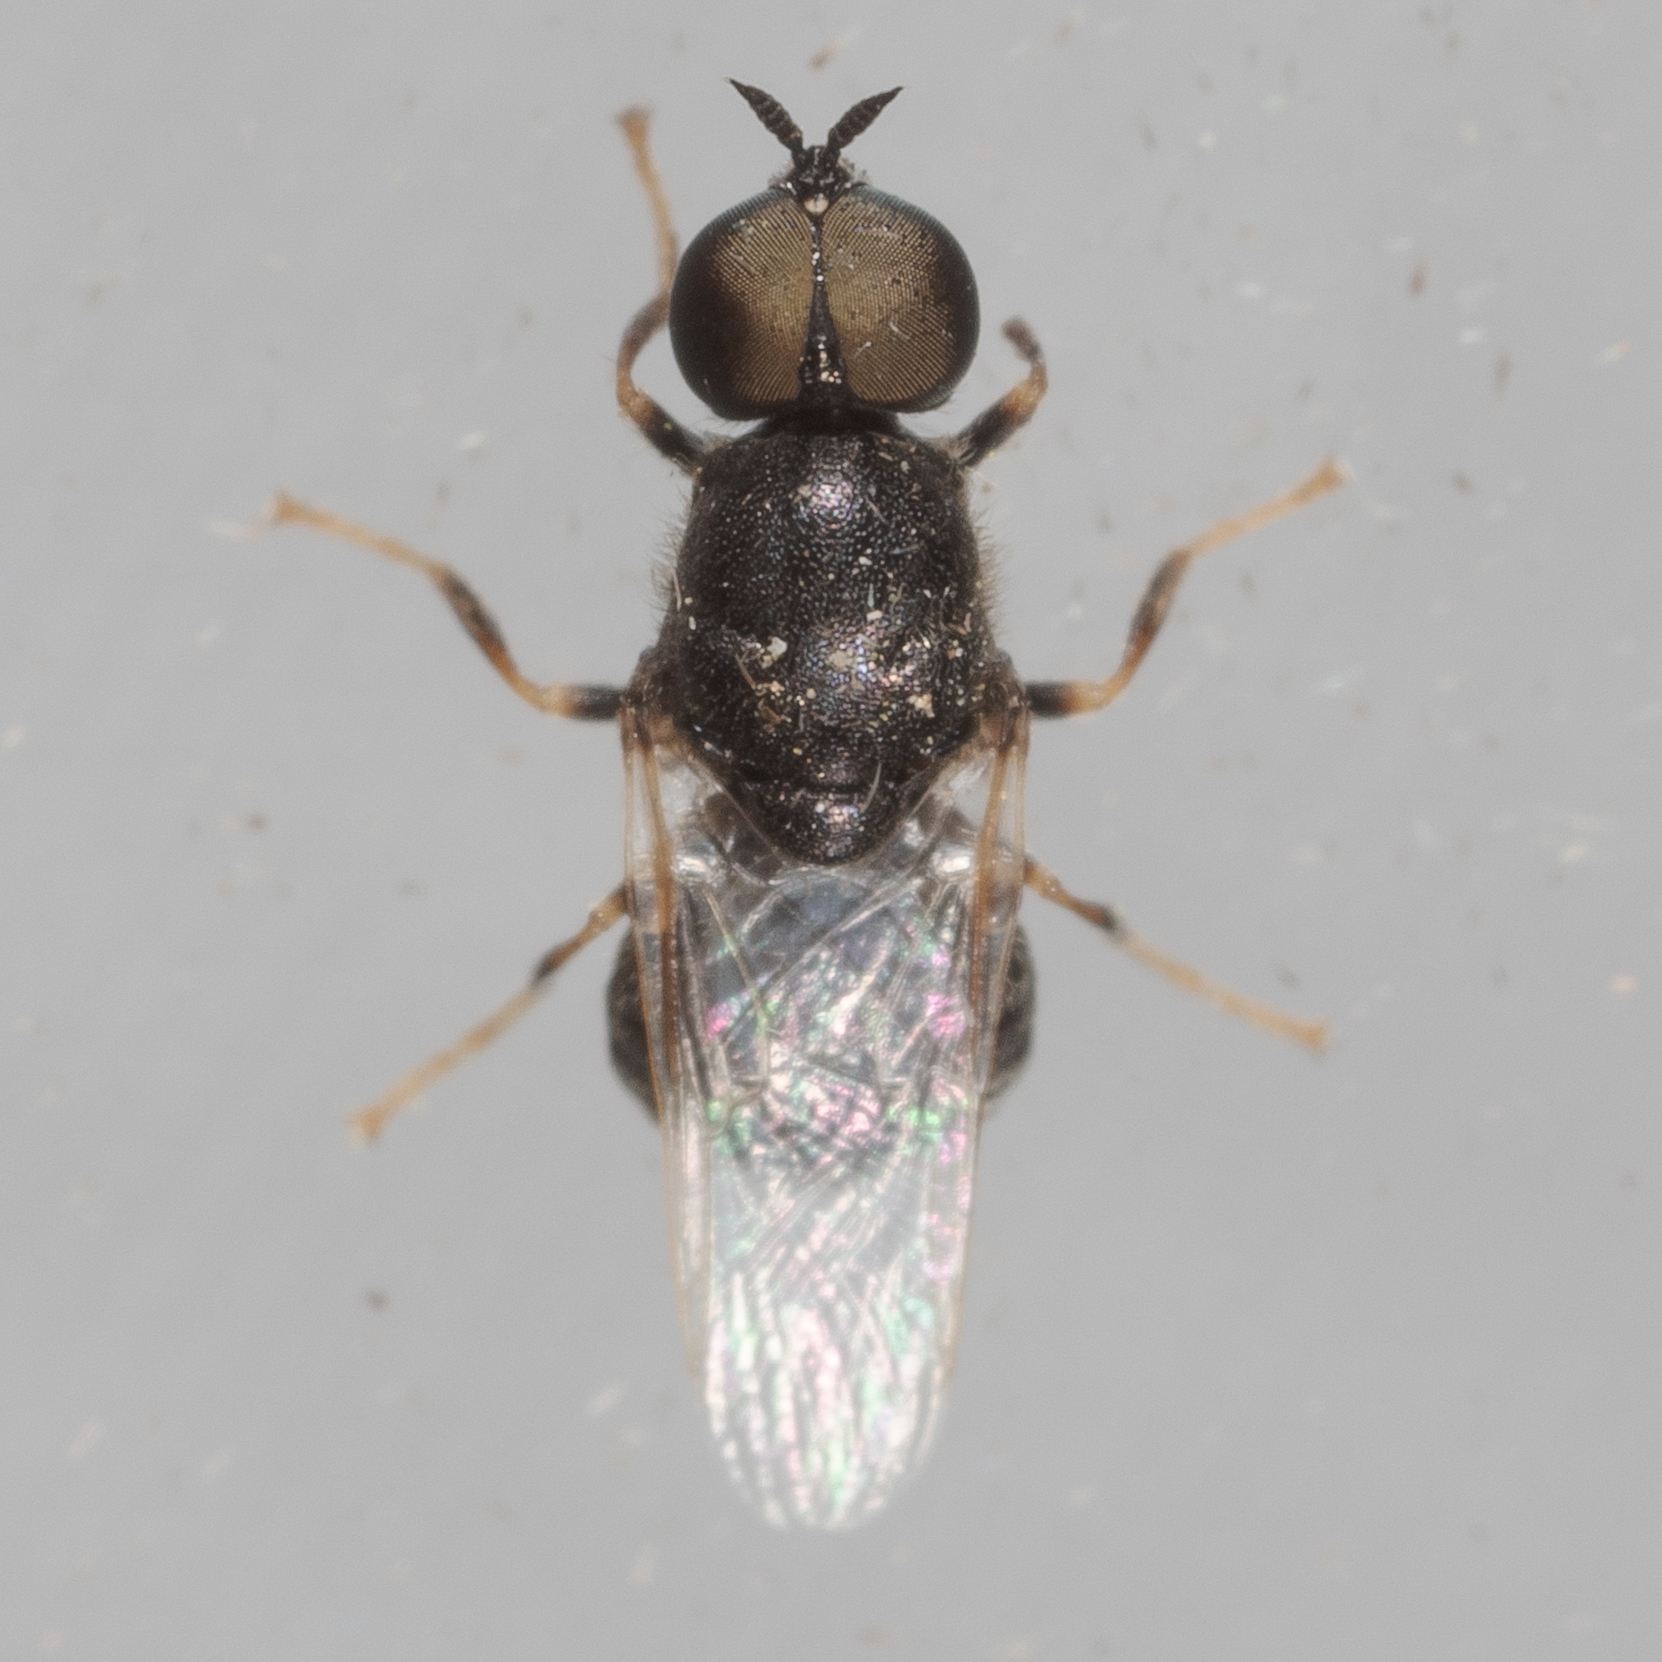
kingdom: Animalia
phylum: Arthropoda
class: Insecta
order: Diptera
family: Stratiomyidae
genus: Nemotelus
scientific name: Nemotelus bruesii
